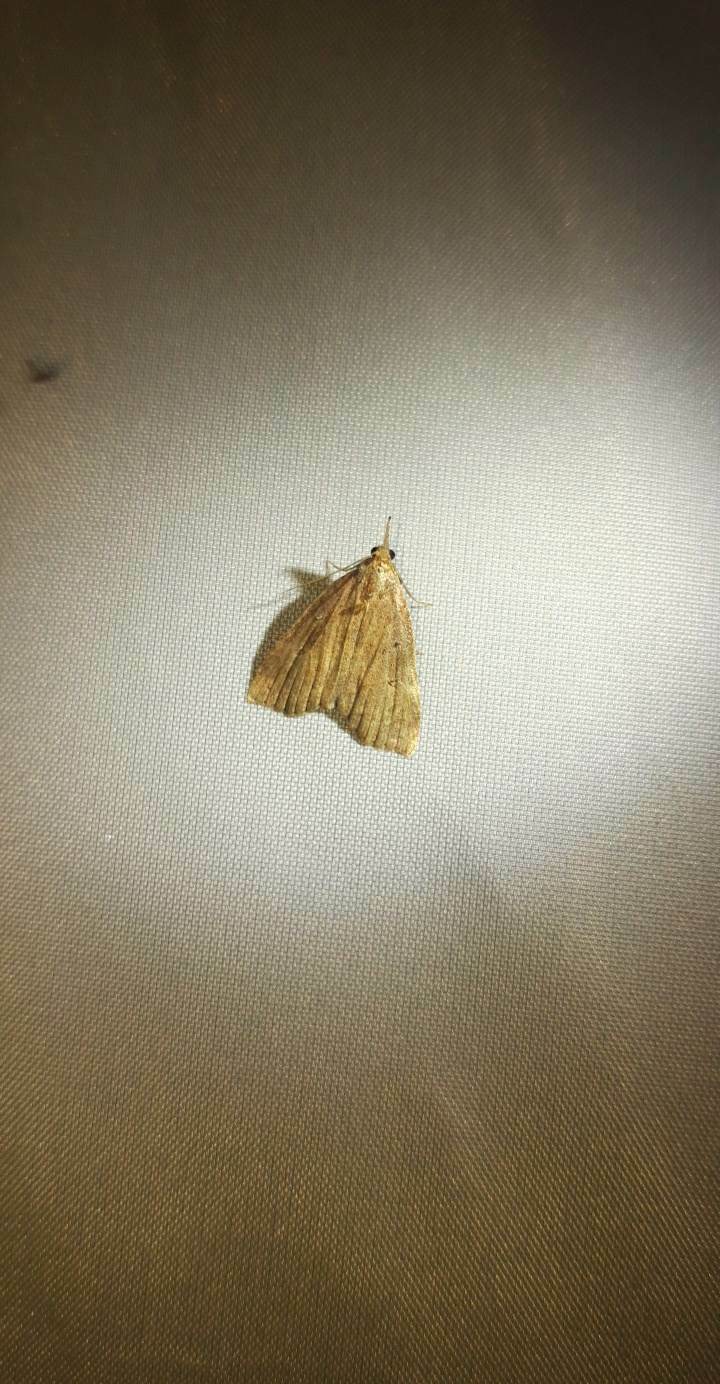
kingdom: Animalia
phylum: Arthropoda
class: Insecta
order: Lepidoptera
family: Erebidae
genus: Hypena
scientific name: Hypena rostralis
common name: Buttoned snout
